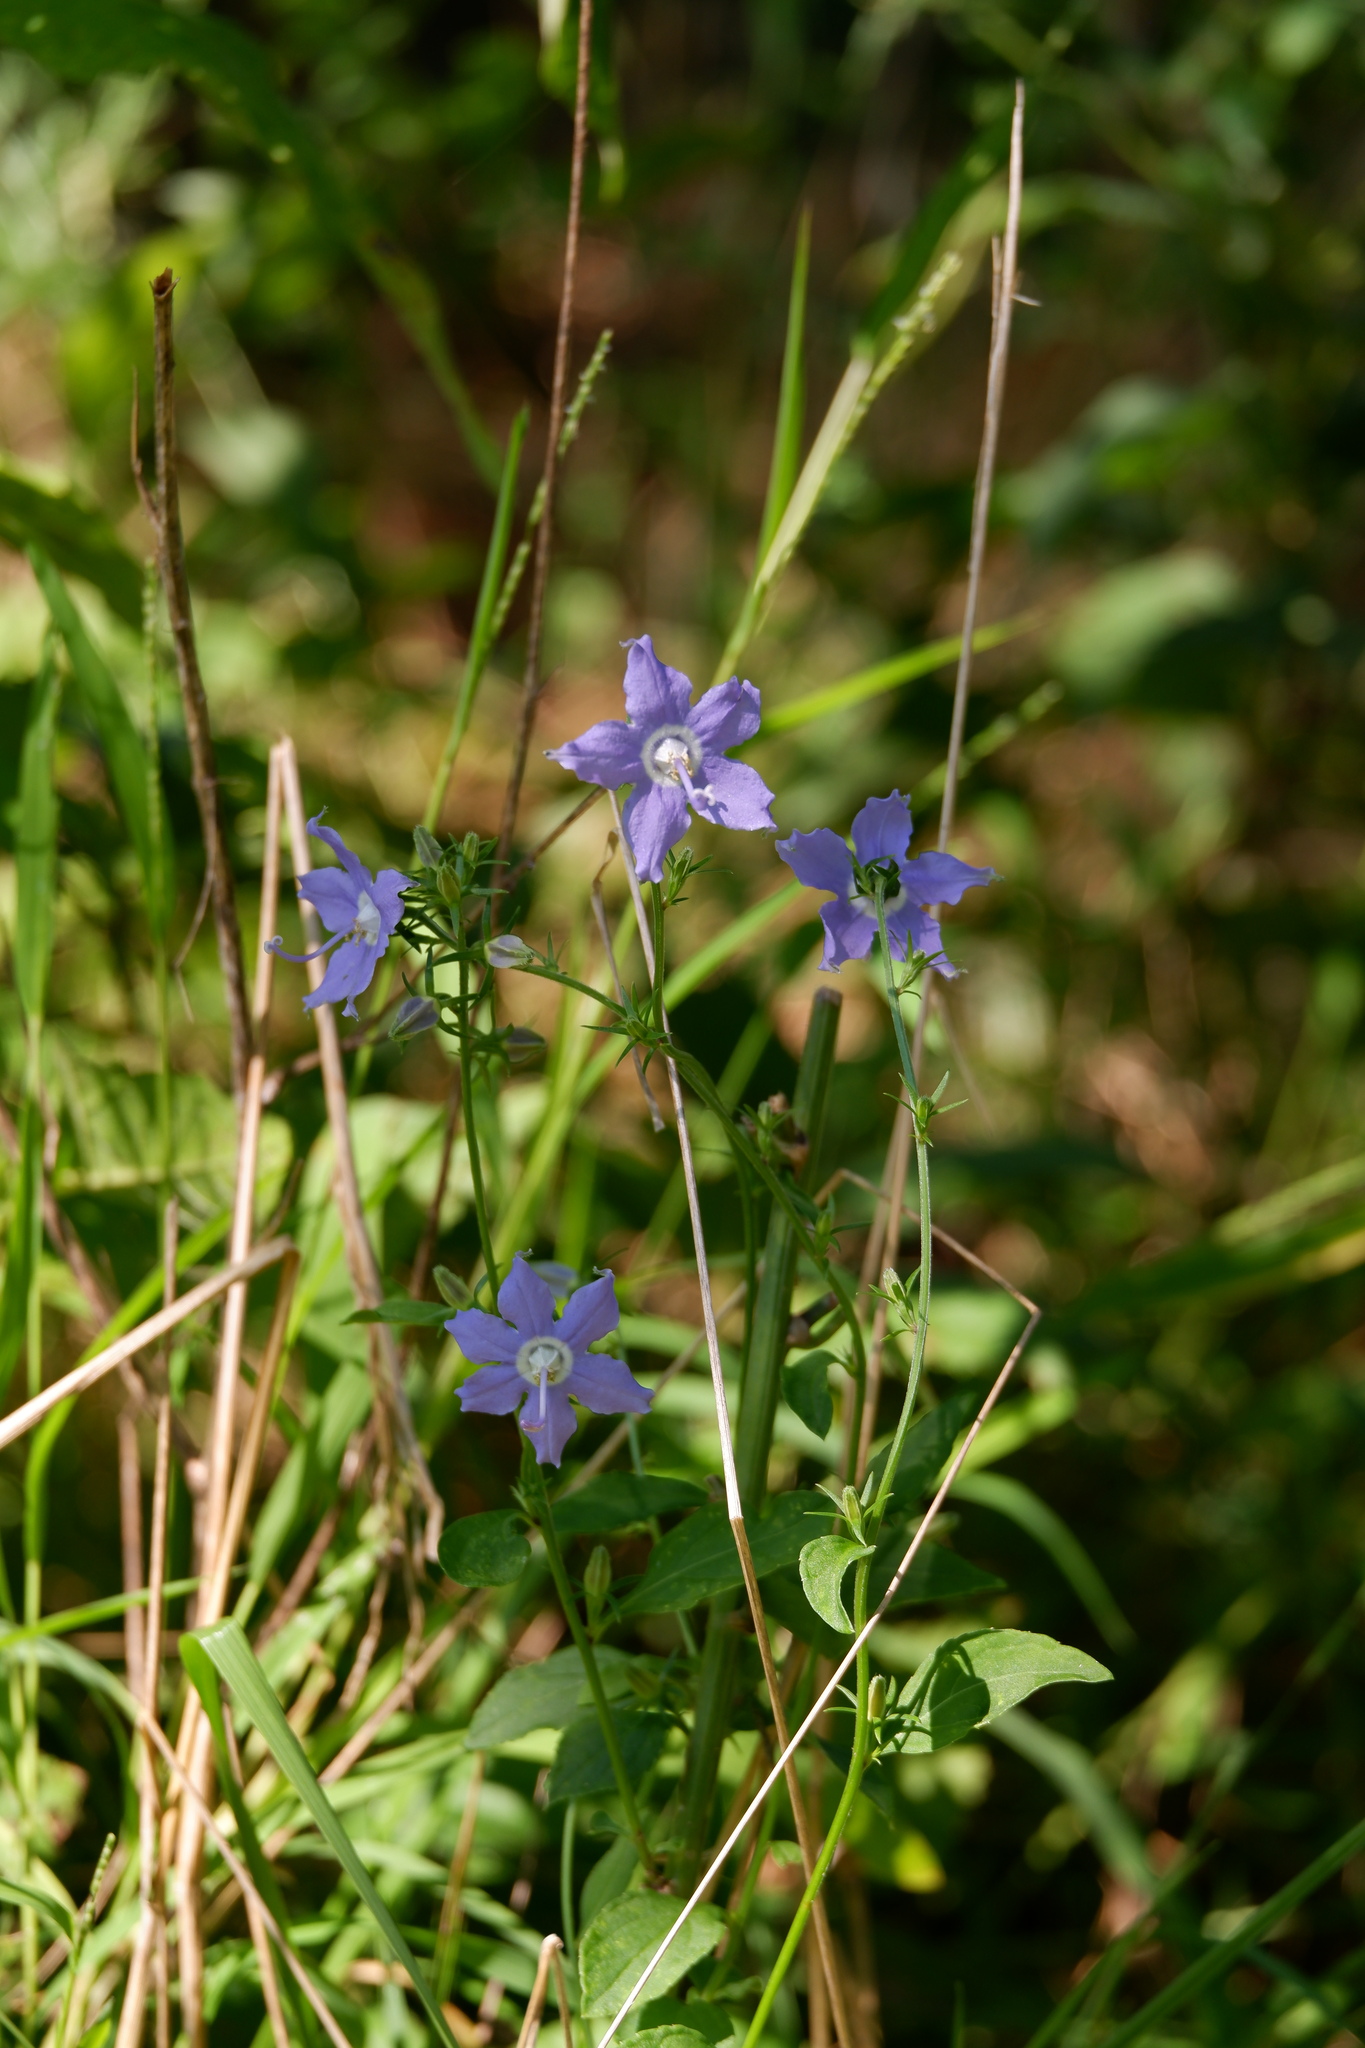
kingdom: Plantae
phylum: Tracheophyta
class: Magnoliopsida
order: Asterales
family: Campanulaceae
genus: Campanulastrum
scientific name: Campanulastrum americanum
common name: American bellflower
